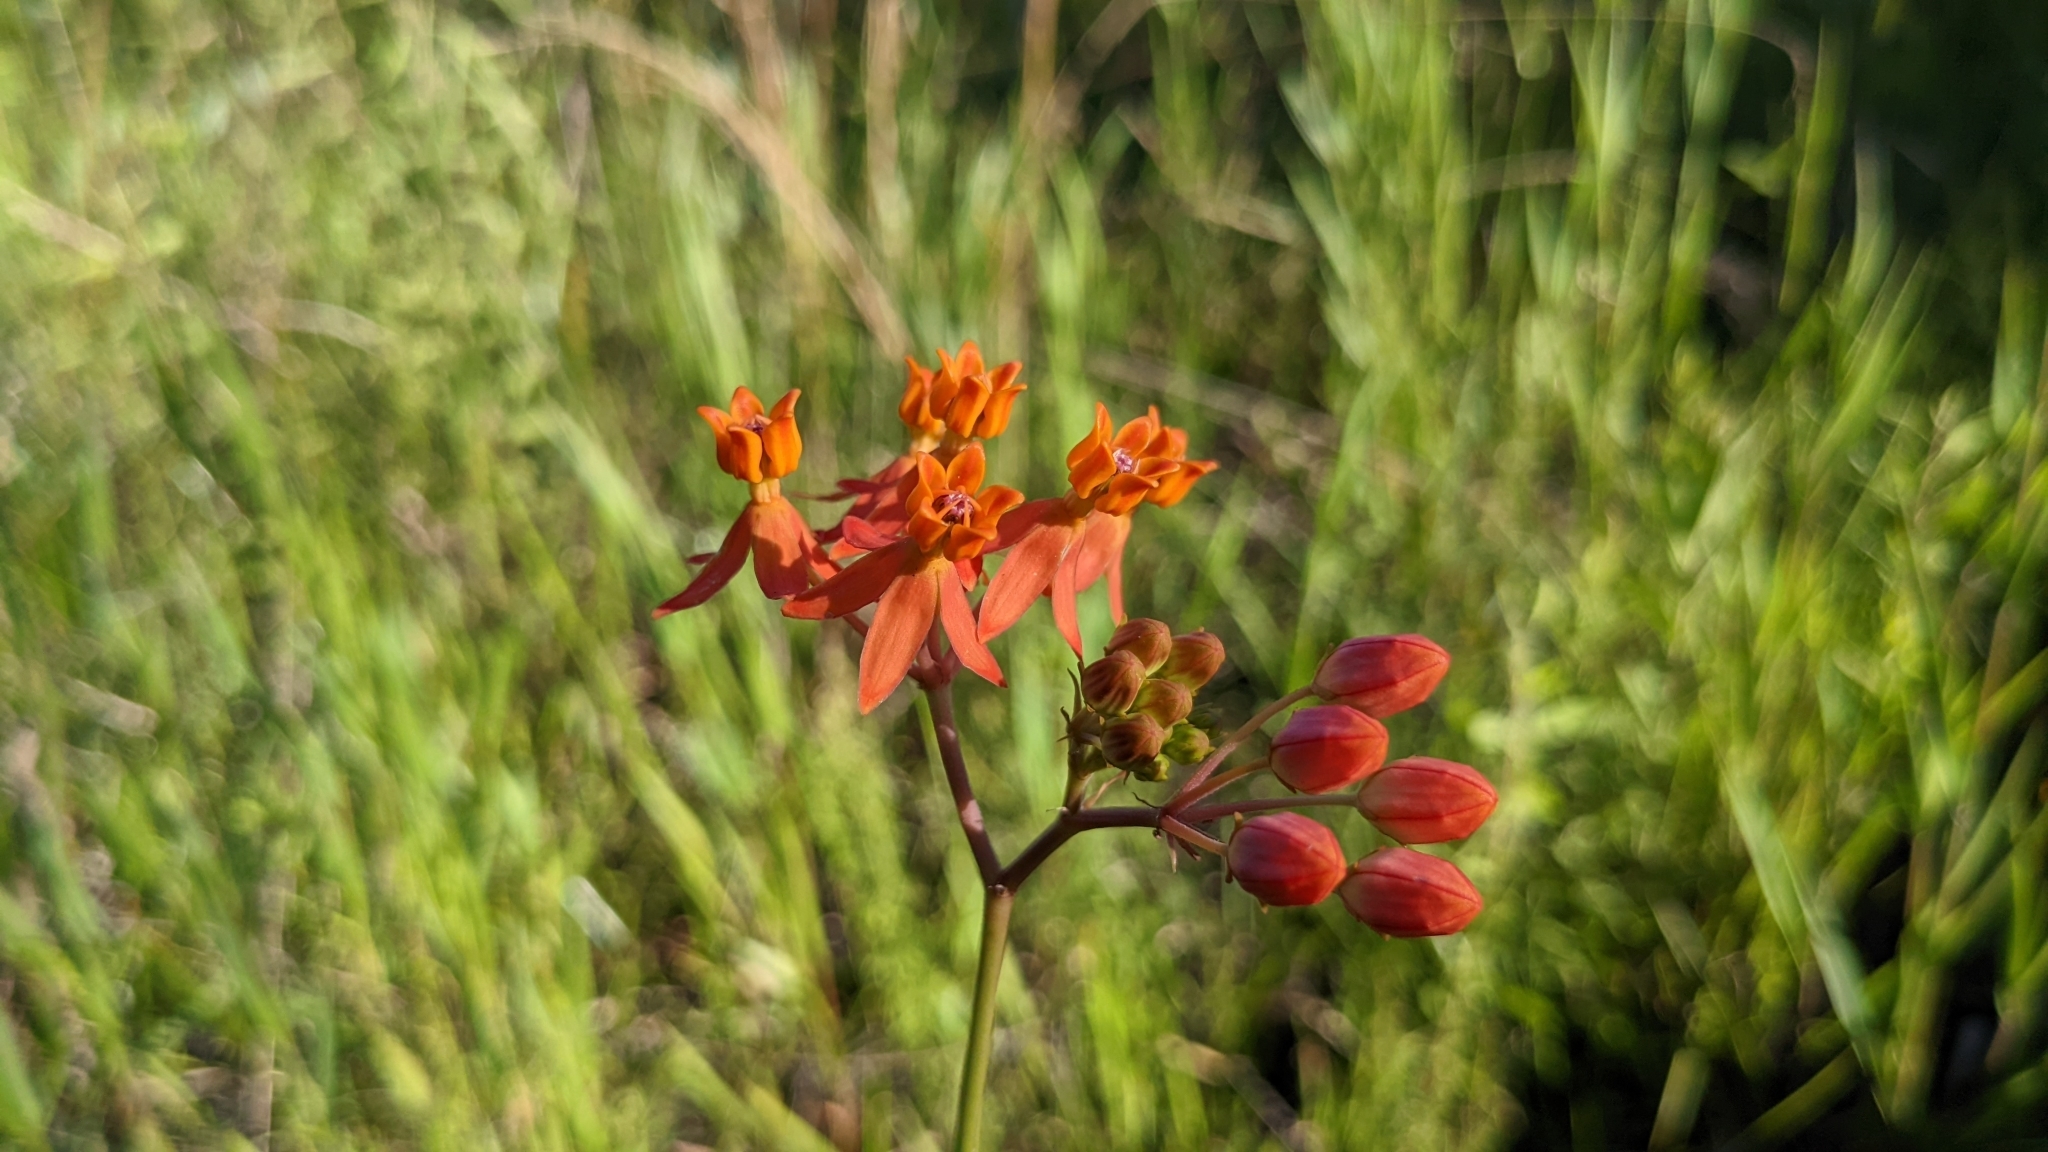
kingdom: Plantae
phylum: Tracheophyta
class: Magnoliopsida
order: Gentianales
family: Apocynaceae
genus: Asclepias
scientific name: Asclepias lanceolata
